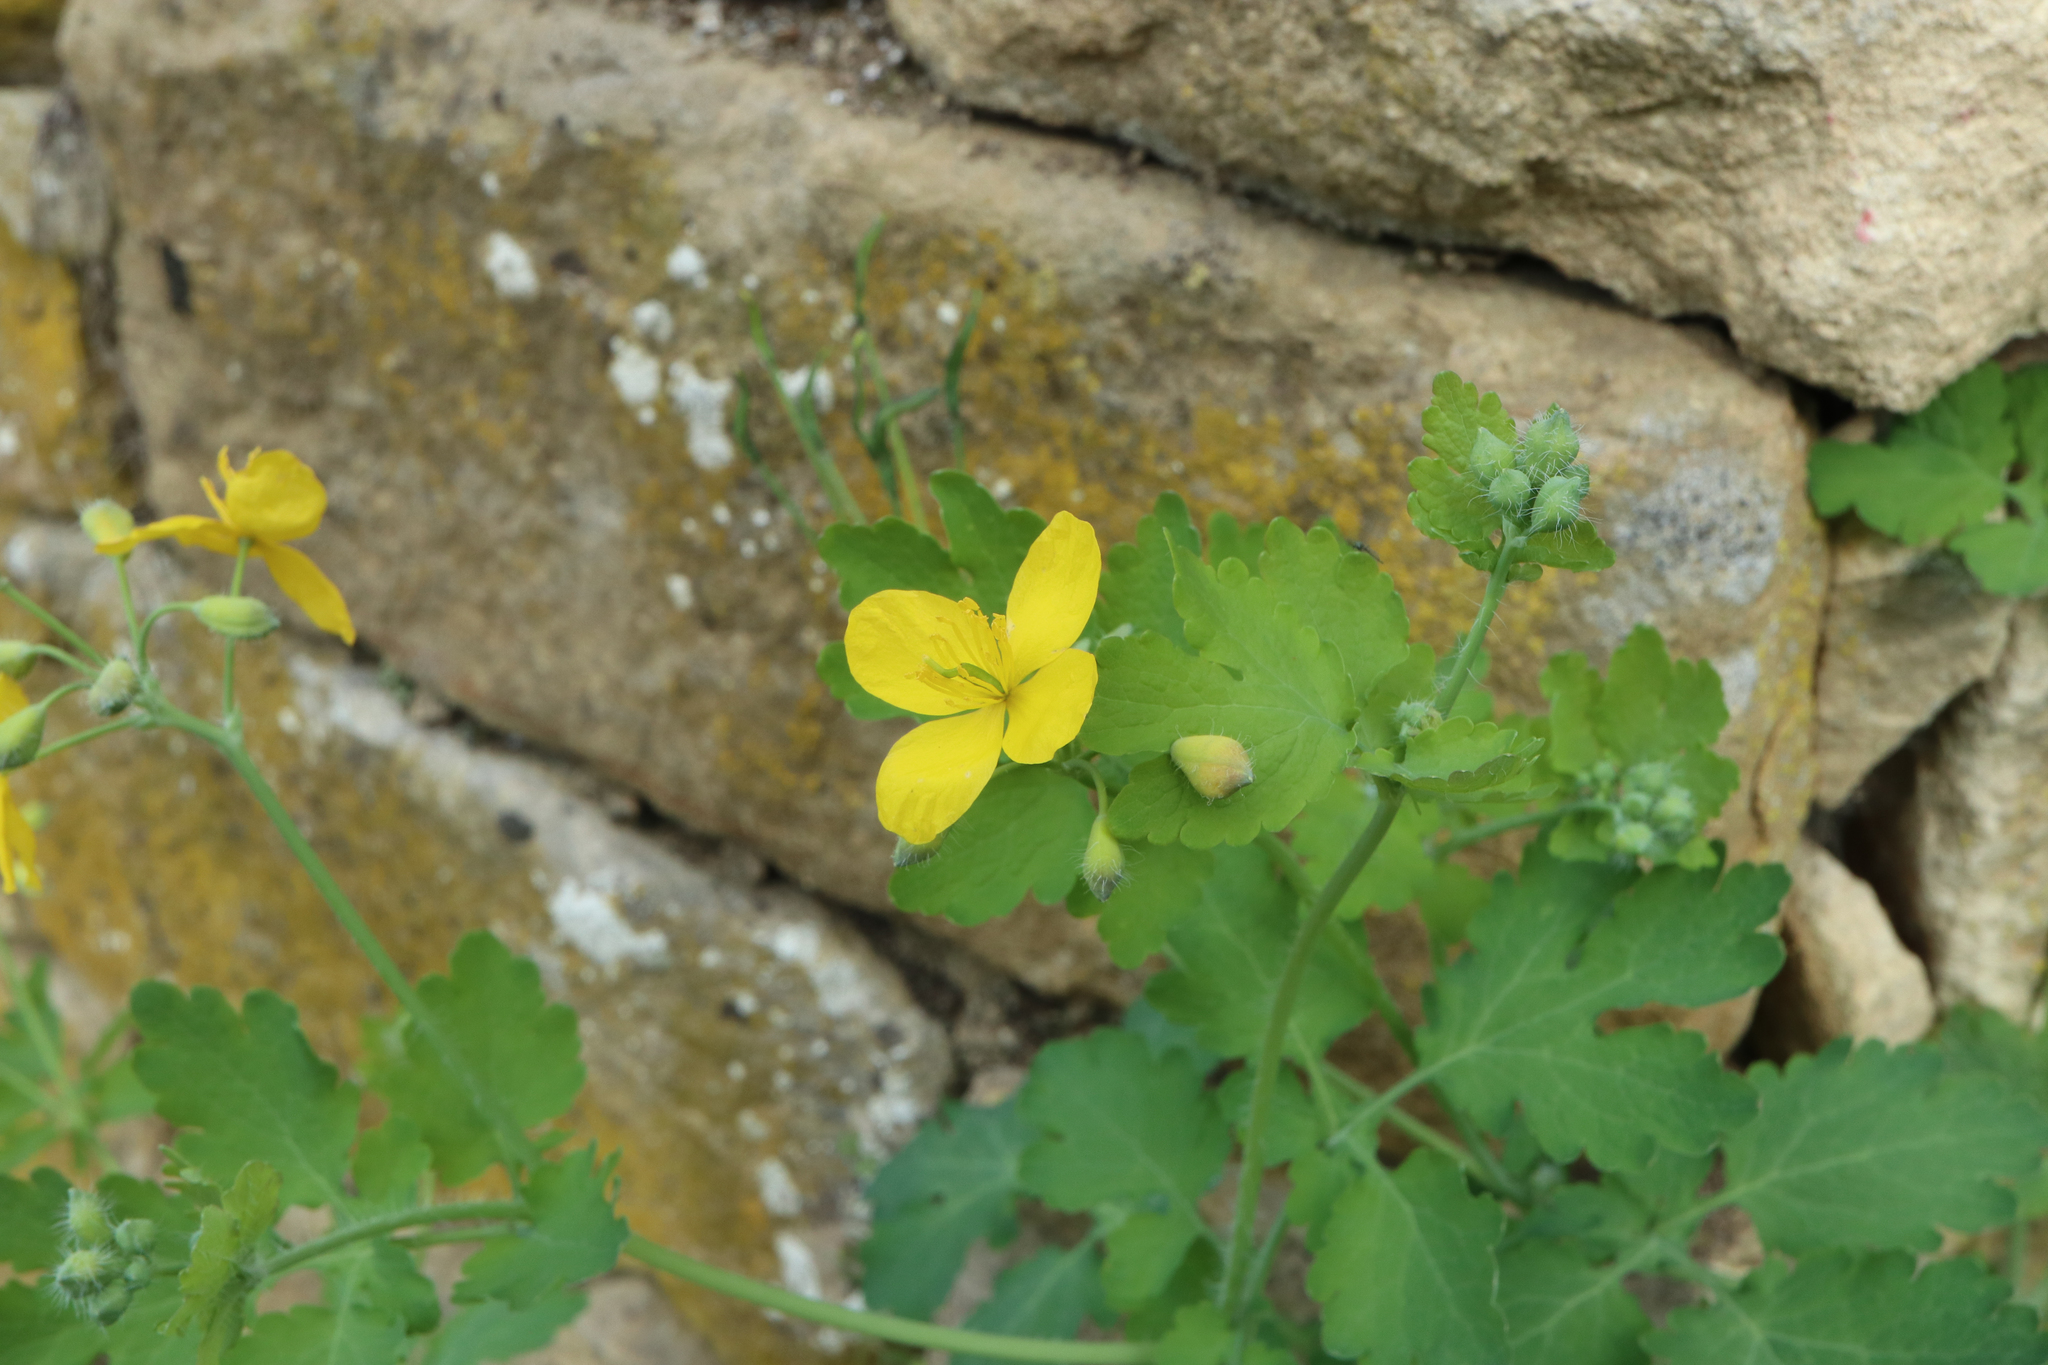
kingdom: Plantae
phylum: Tracheophyta
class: Magnoliopsida
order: Ranunculales
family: Papaveraceae
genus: Chelidonium
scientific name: Chelidonium majus
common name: Greater celandine
